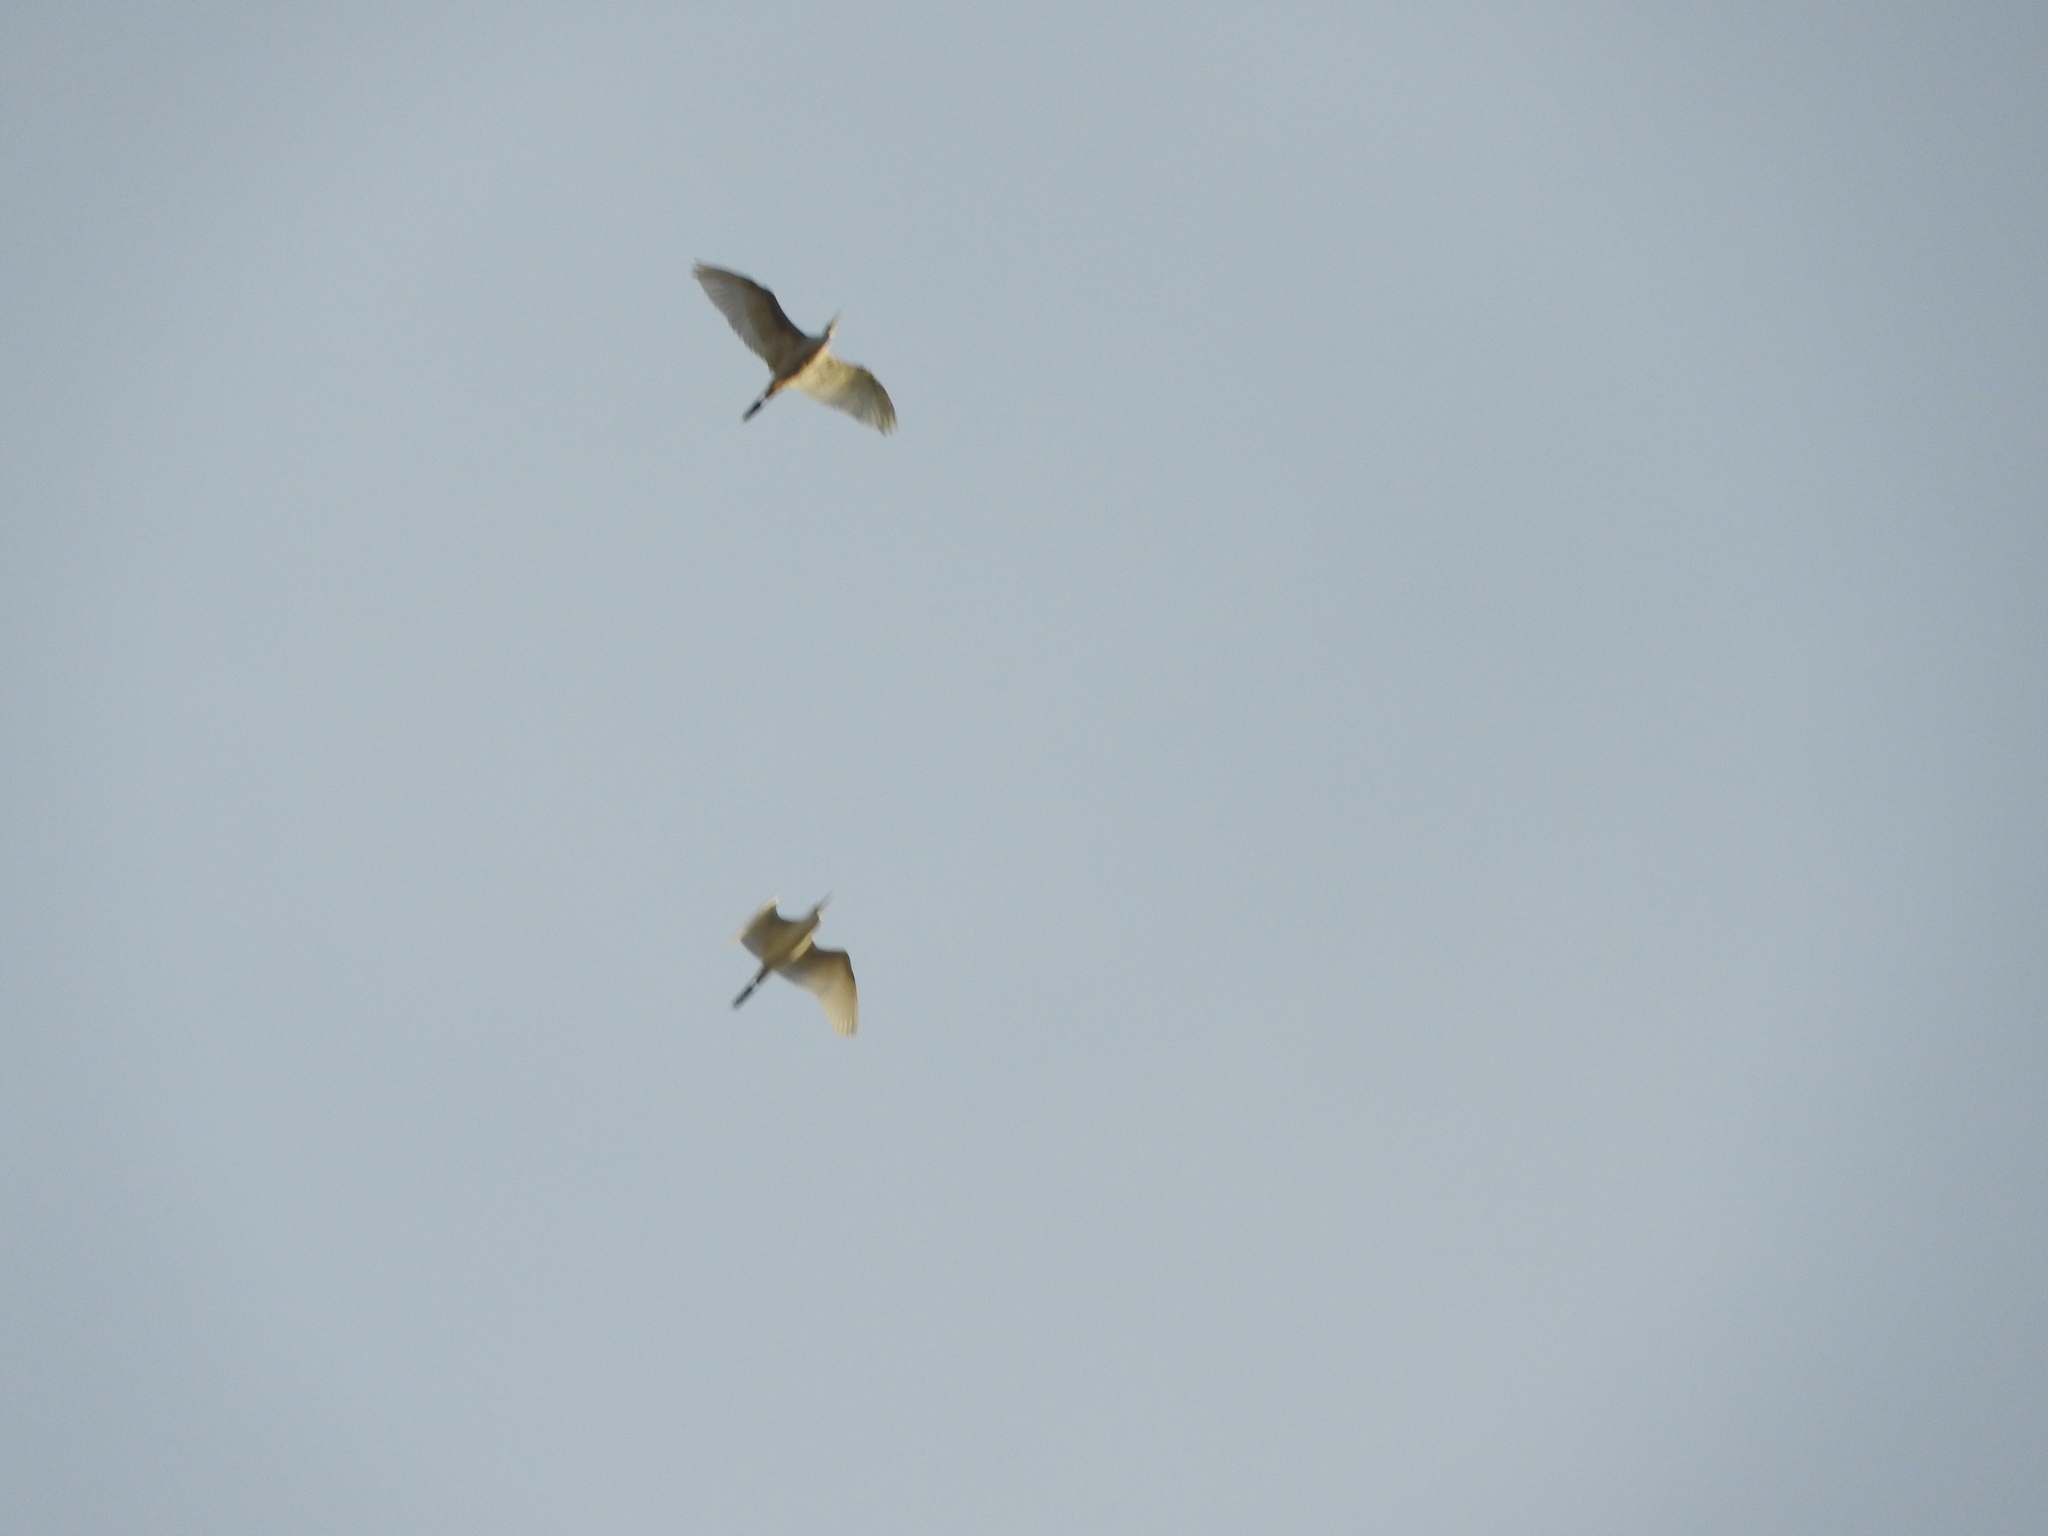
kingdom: Animalia
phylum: Chordata
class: Aves
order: Pelecaniformes
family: Ardeidae
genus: Bubulcus
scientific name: Bubulcus ibis
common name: Cattle egret
